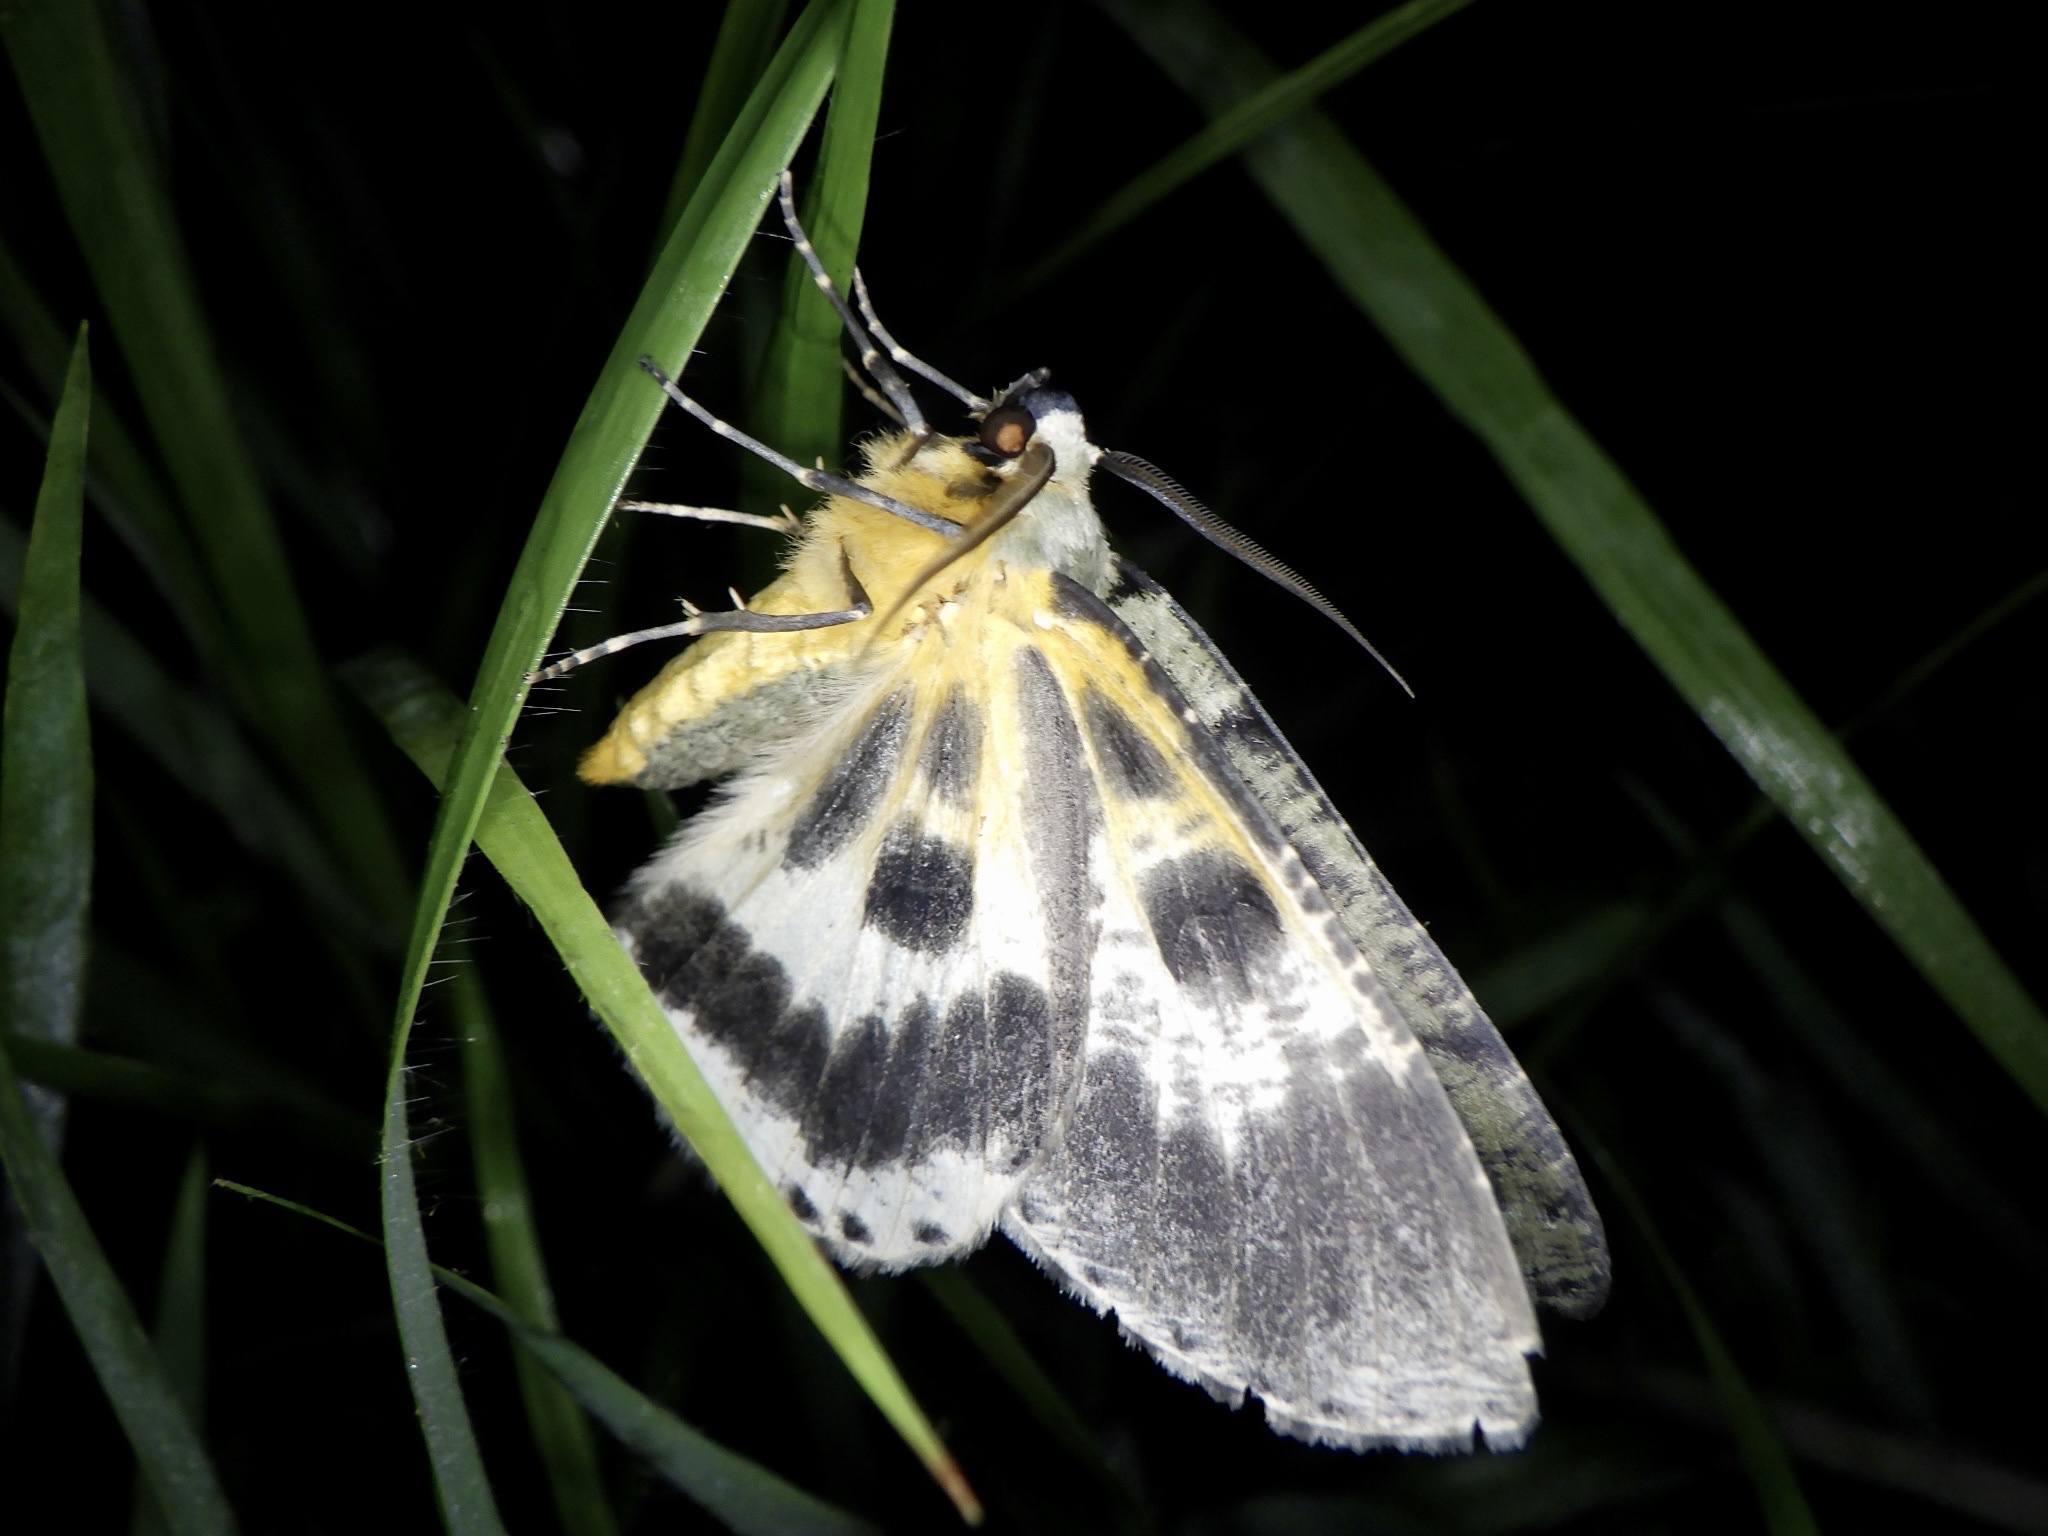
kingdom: Animalia
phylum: Arthropoda
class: Insecta
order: Lepidoptera
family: Geometridae
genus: Pachista
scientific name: Pachista superans
